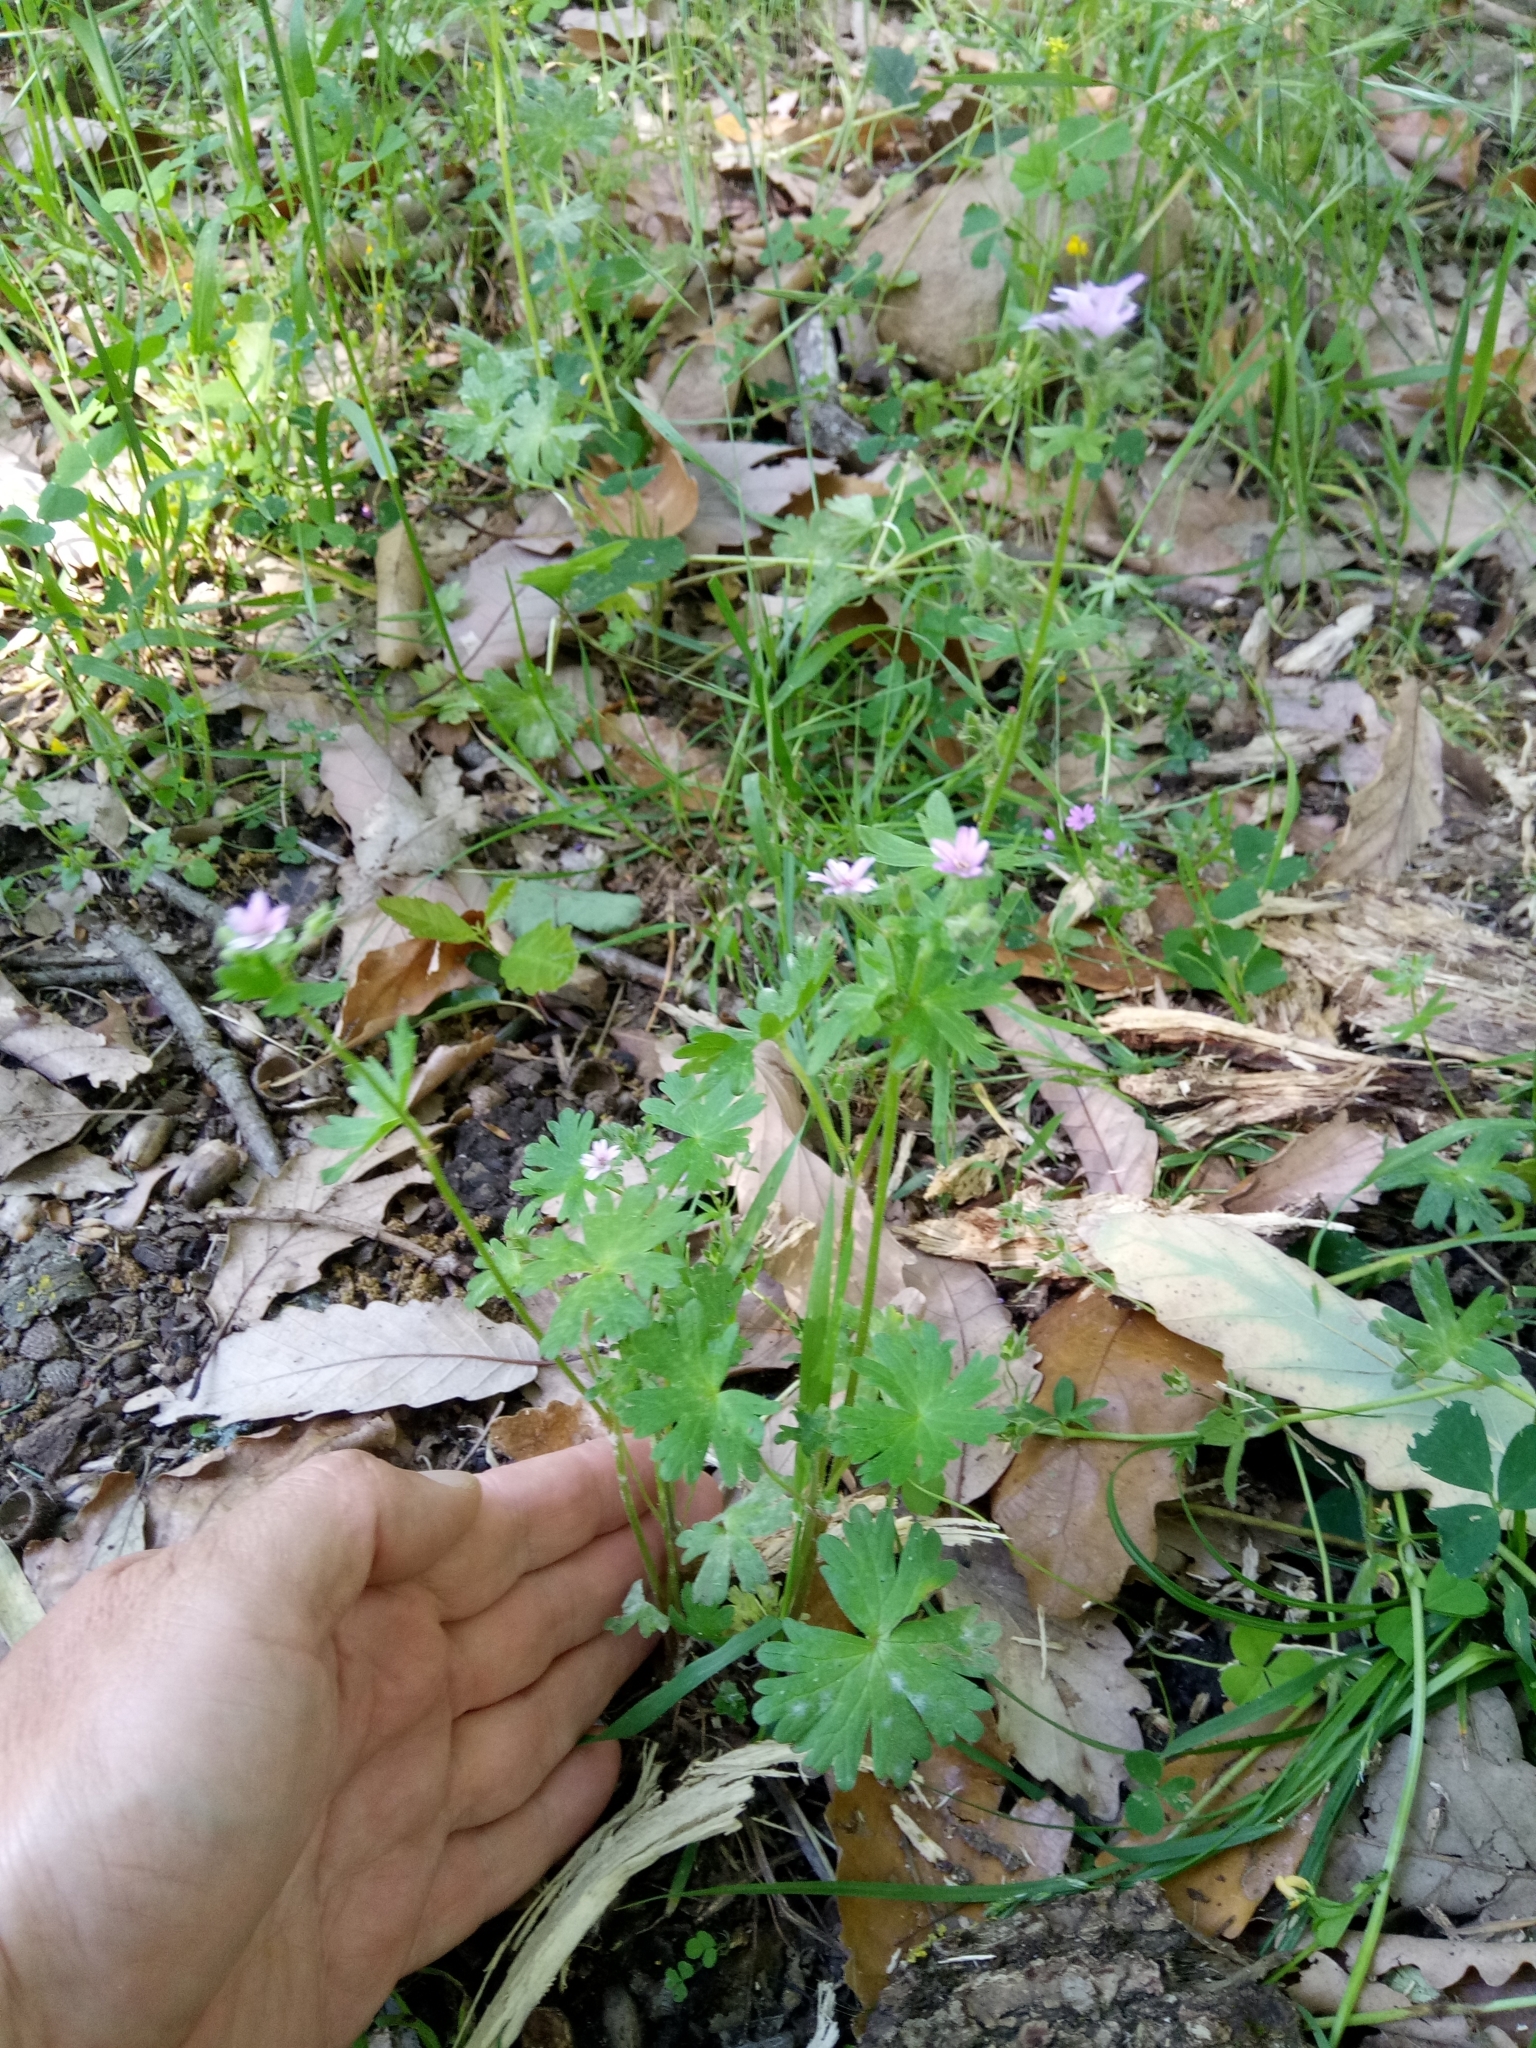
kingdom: Plantae
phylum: Tracheophyta
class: Magnoliopsida
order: Geraniales
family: Geraniaceae
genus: Geranium
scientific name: Geranium molle
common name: Dove's-foot crane's-bill
